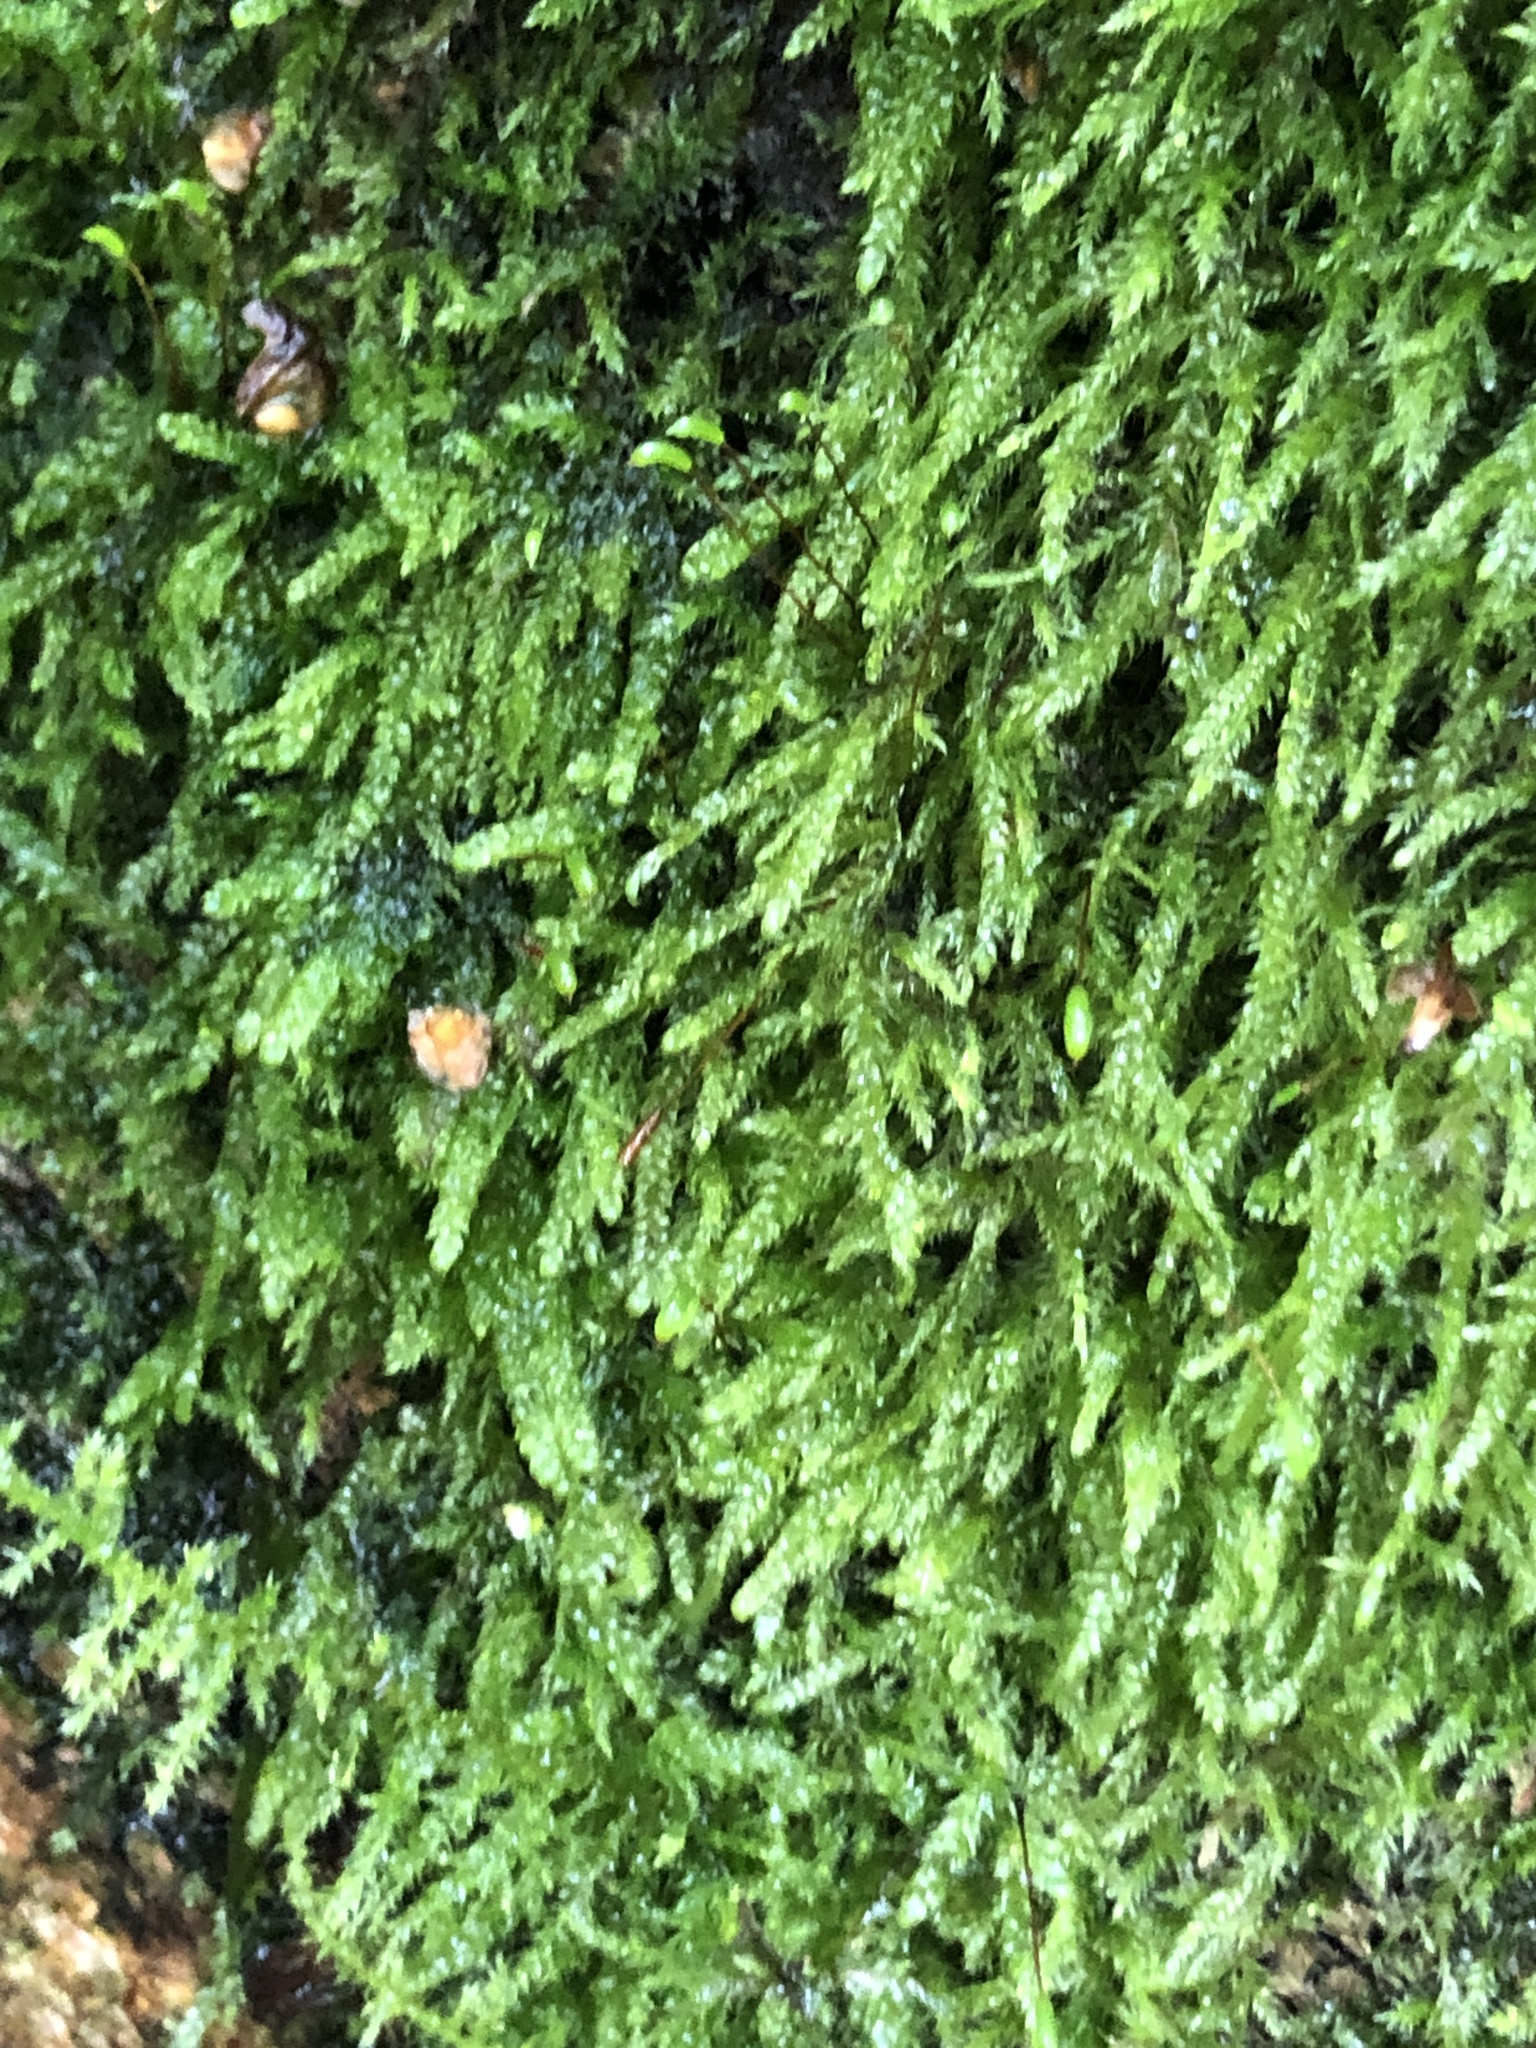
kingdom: Plantae
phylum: Bryophyta
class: Bryopsida
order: Hypnales
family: Hypnaceae
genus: Hypnum
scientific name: Hypnum cupressiforme
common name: Cypress-leaved plait-moss
